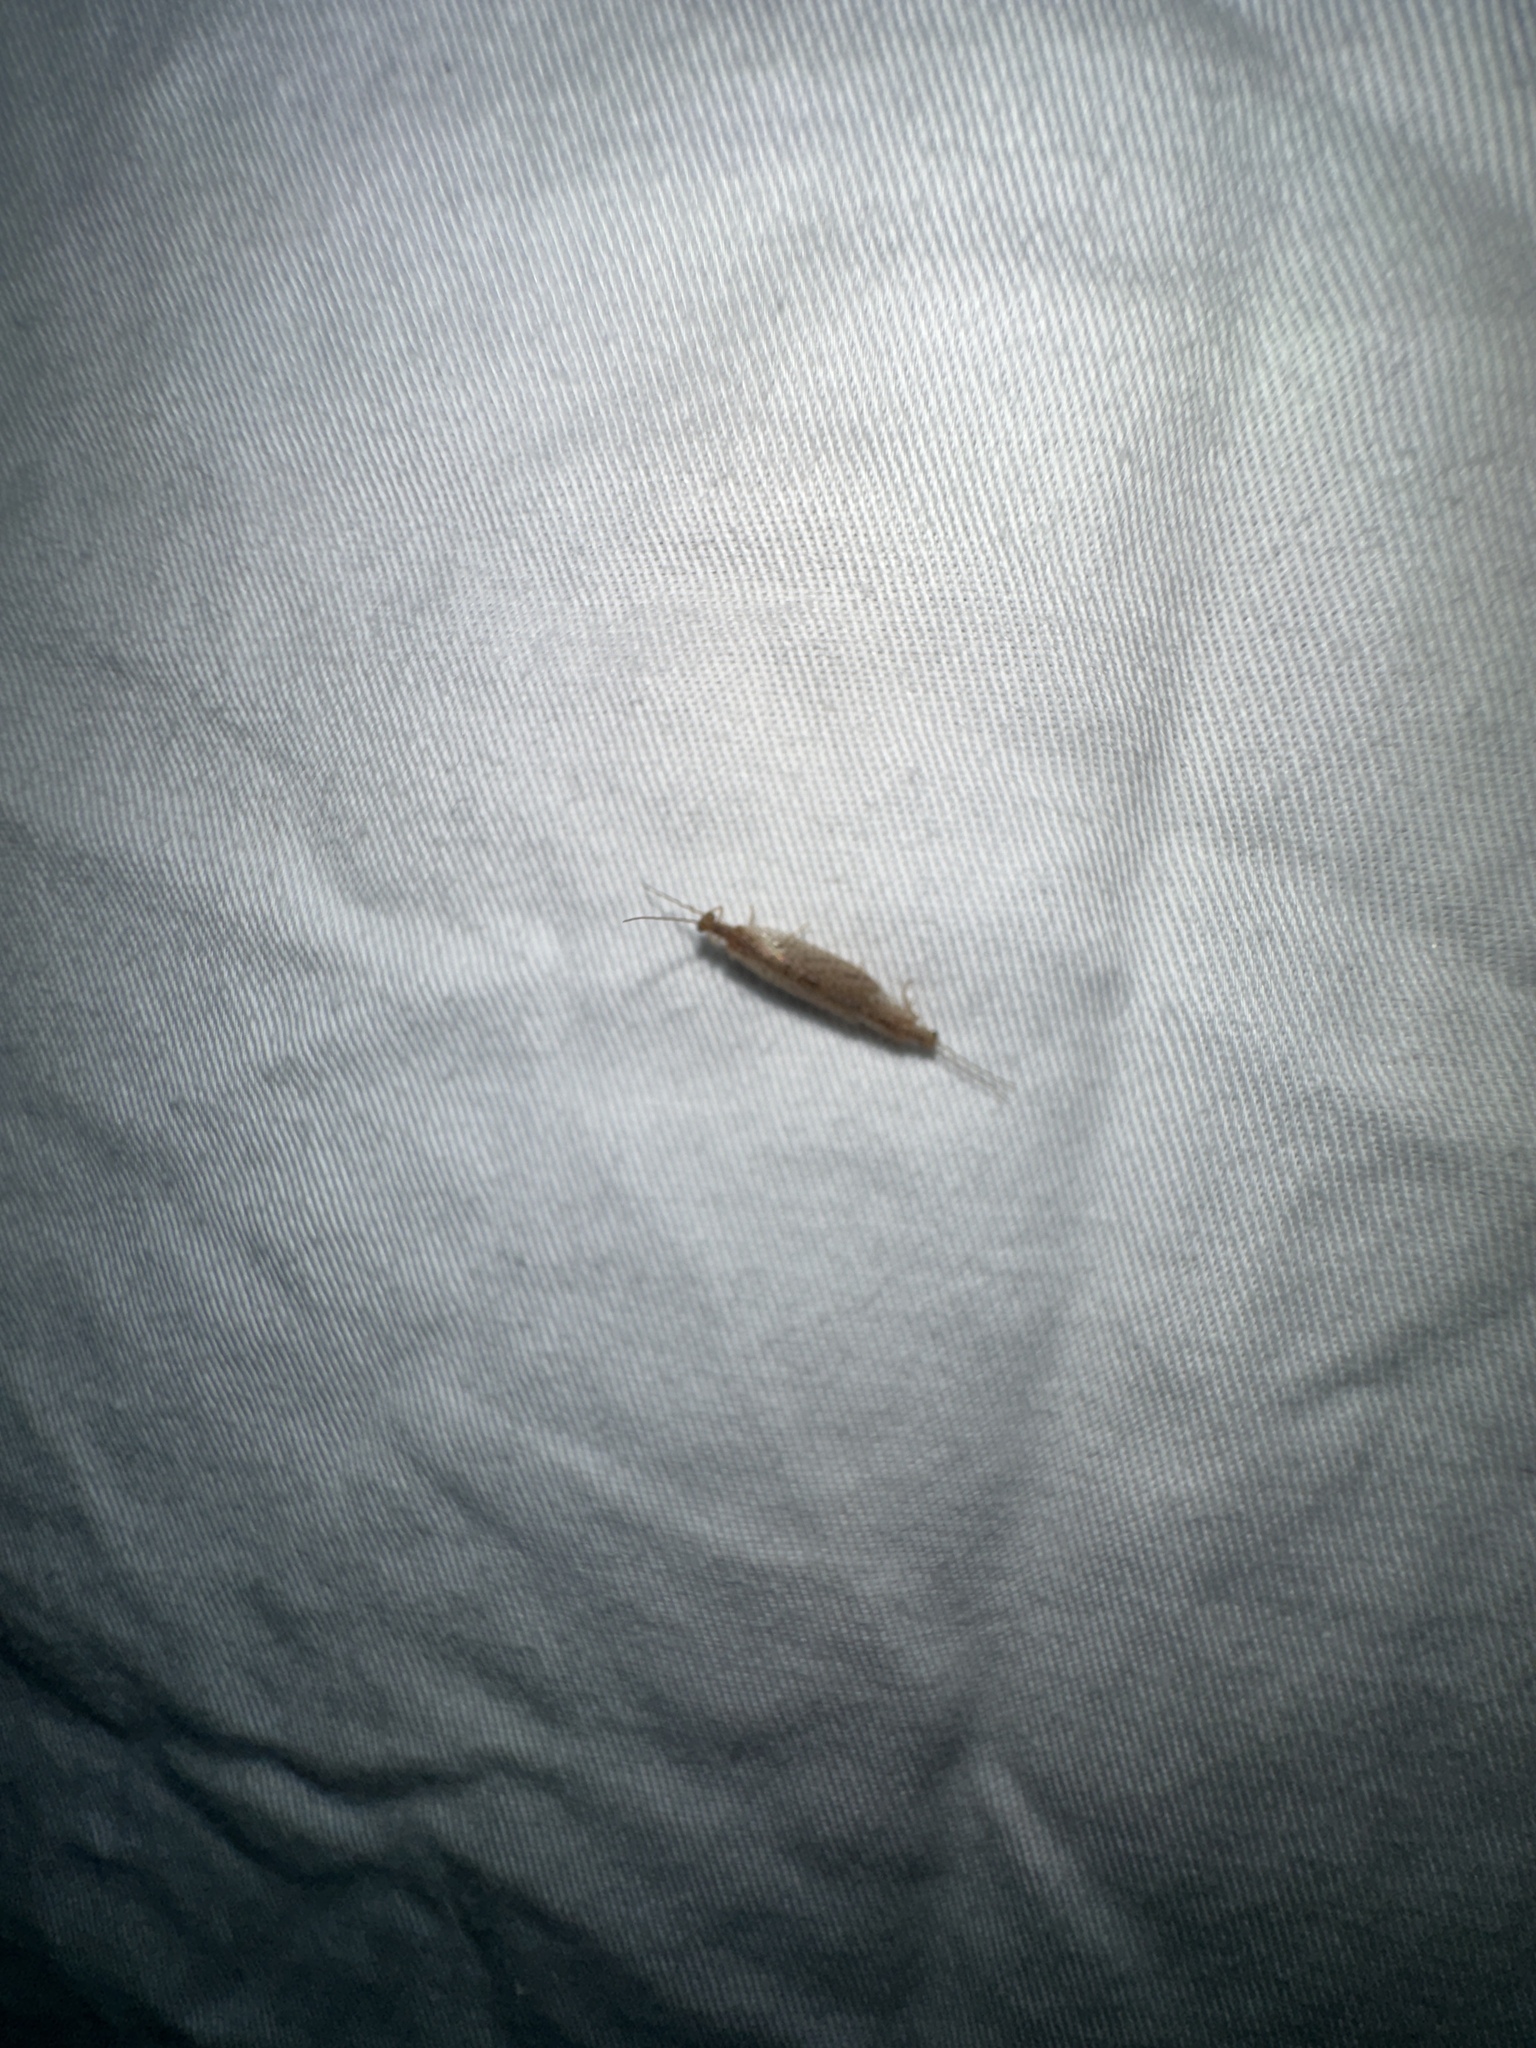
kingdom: Animalia
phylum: Arthropoda
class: Insecta
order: Neuroptera
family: Hemerobiidae
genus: Micromus
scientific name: Micromus tasmaniae
